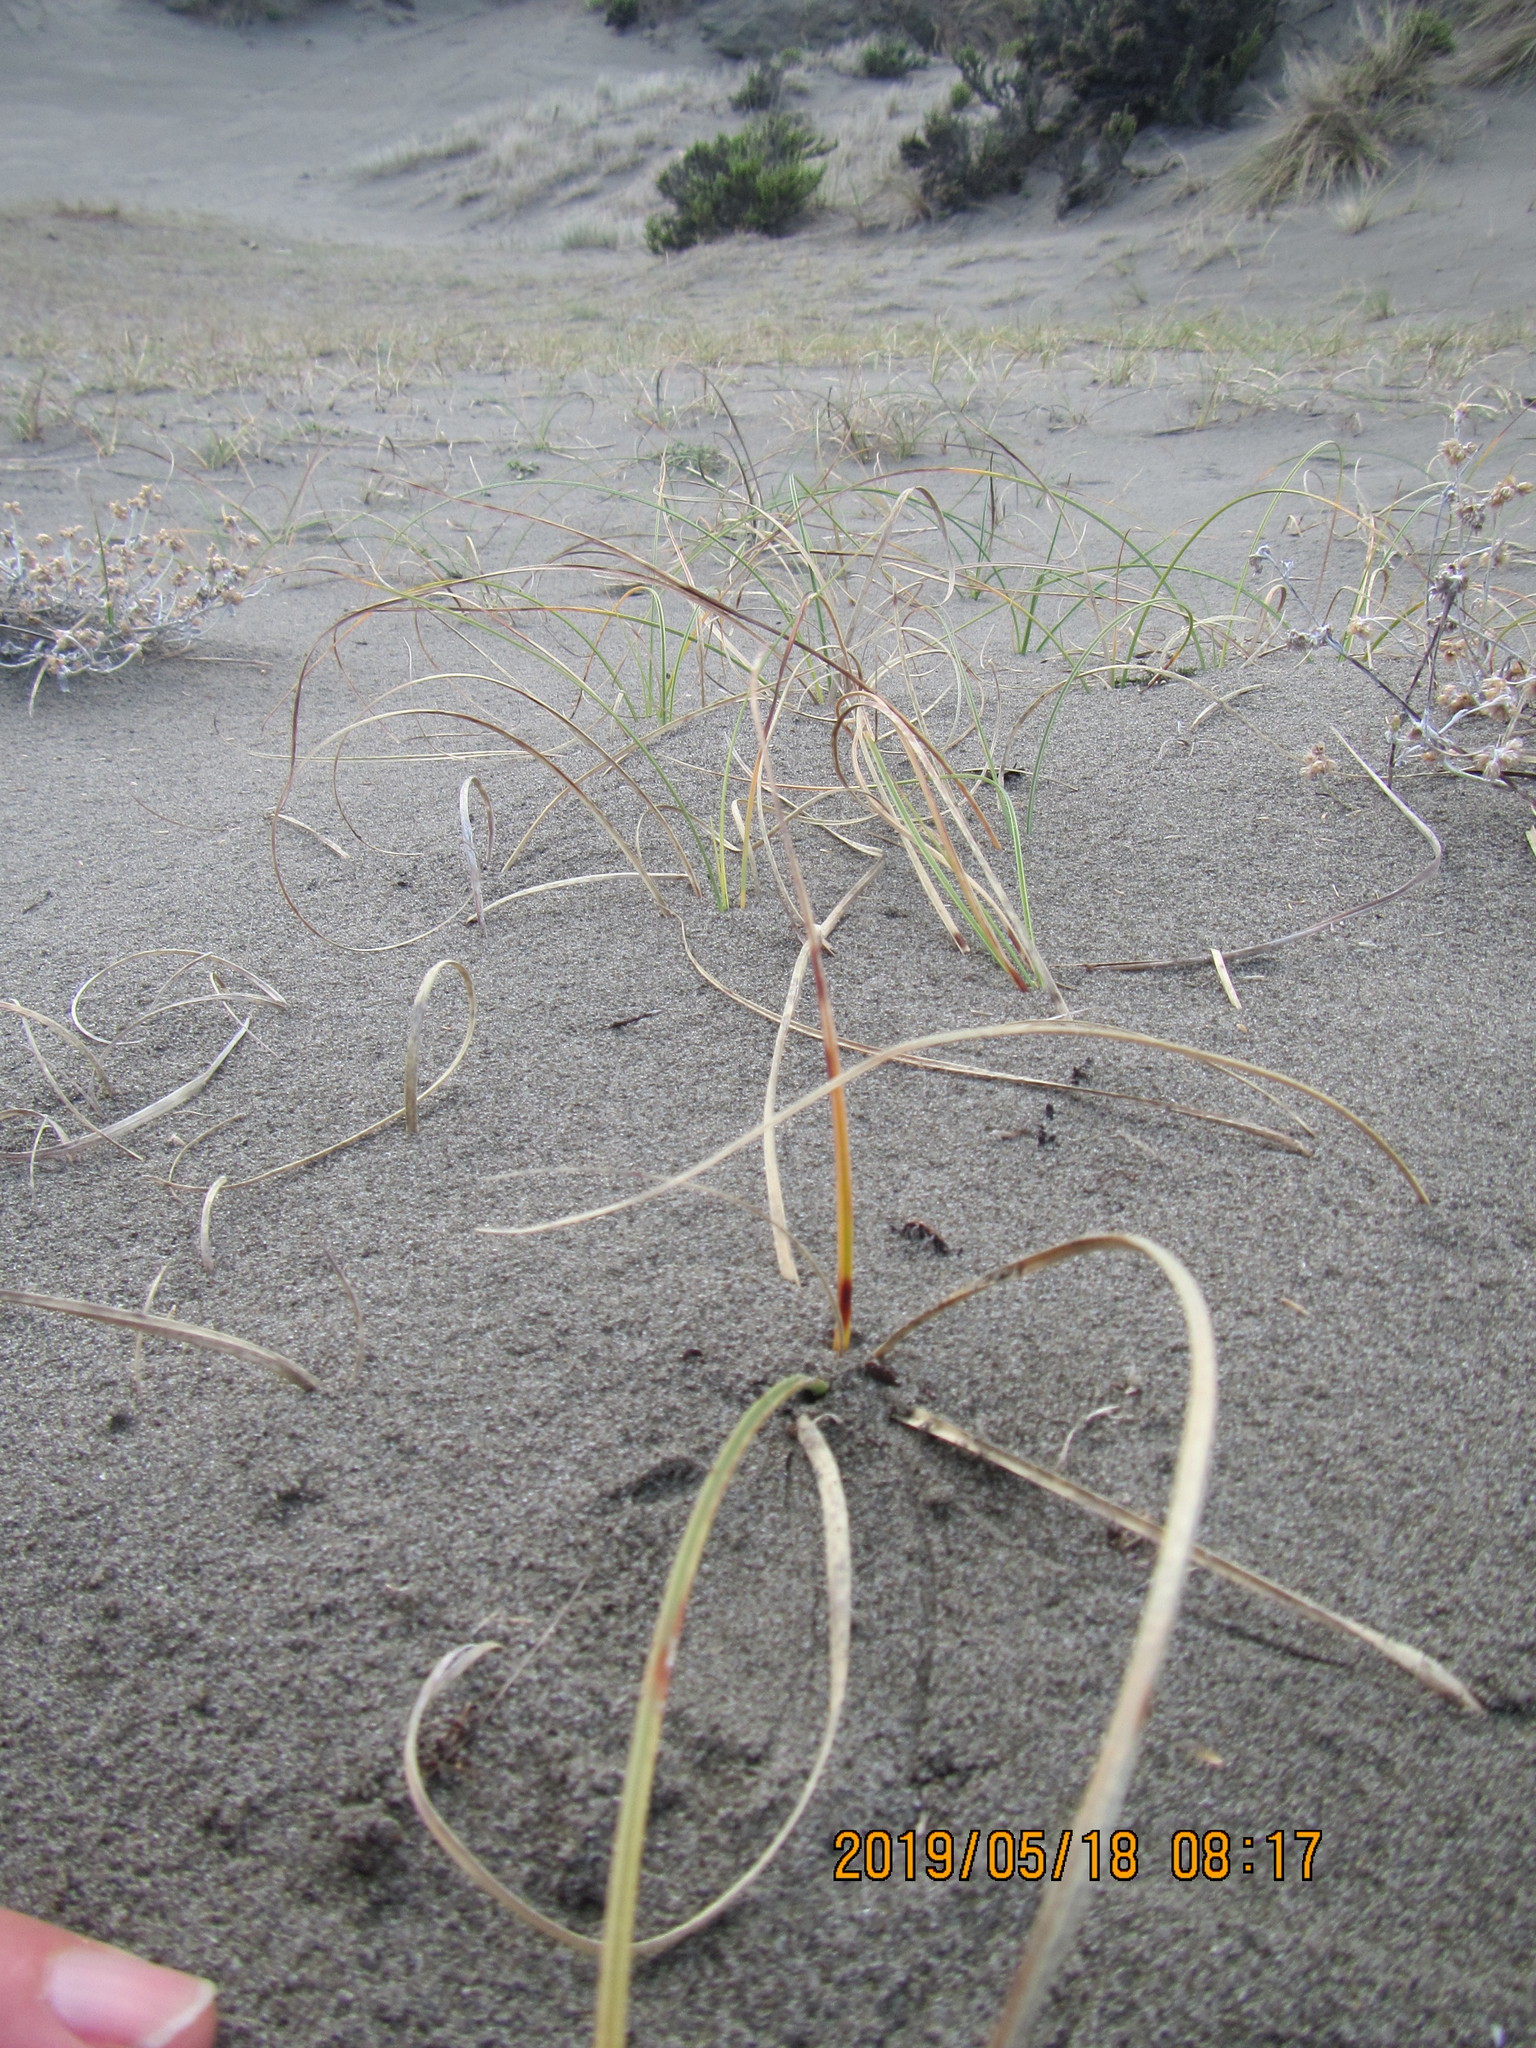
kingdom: Plantae
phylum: Tracheophyta
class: Liliopsida
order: Poales
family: Cyperaceae
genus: Carex
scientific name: Carex pumila
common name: Dwarf sedge
